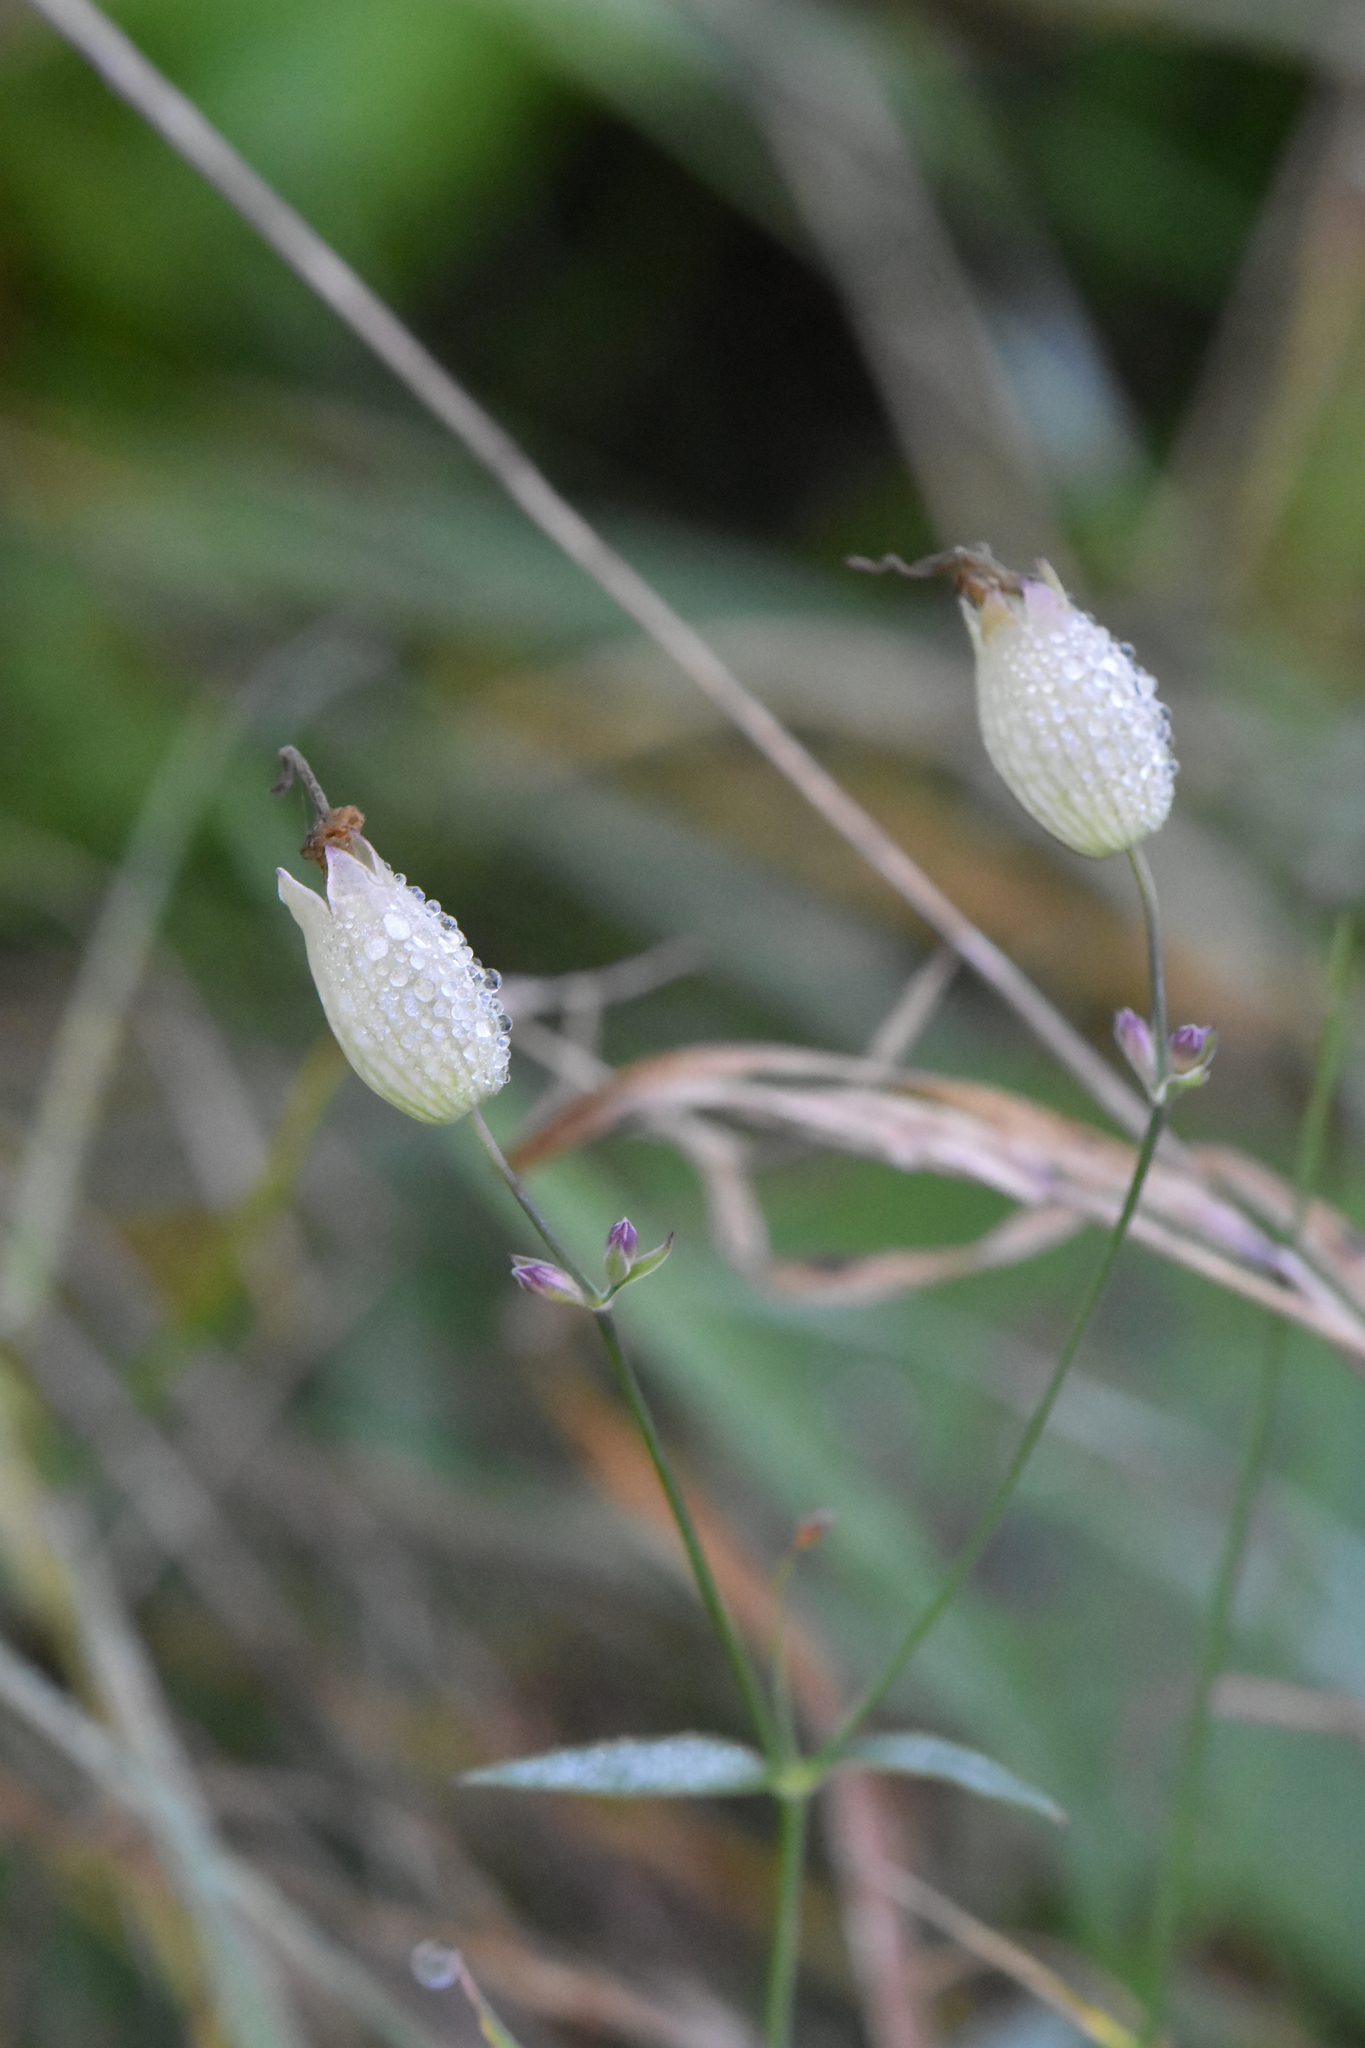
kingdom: Plantae
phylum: Tracheophyta
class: Magnoliopsida
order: Caryophyllales
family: Caryophyllaceae
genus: Silene
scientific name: Silene vulgaris
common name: Bladder campion
